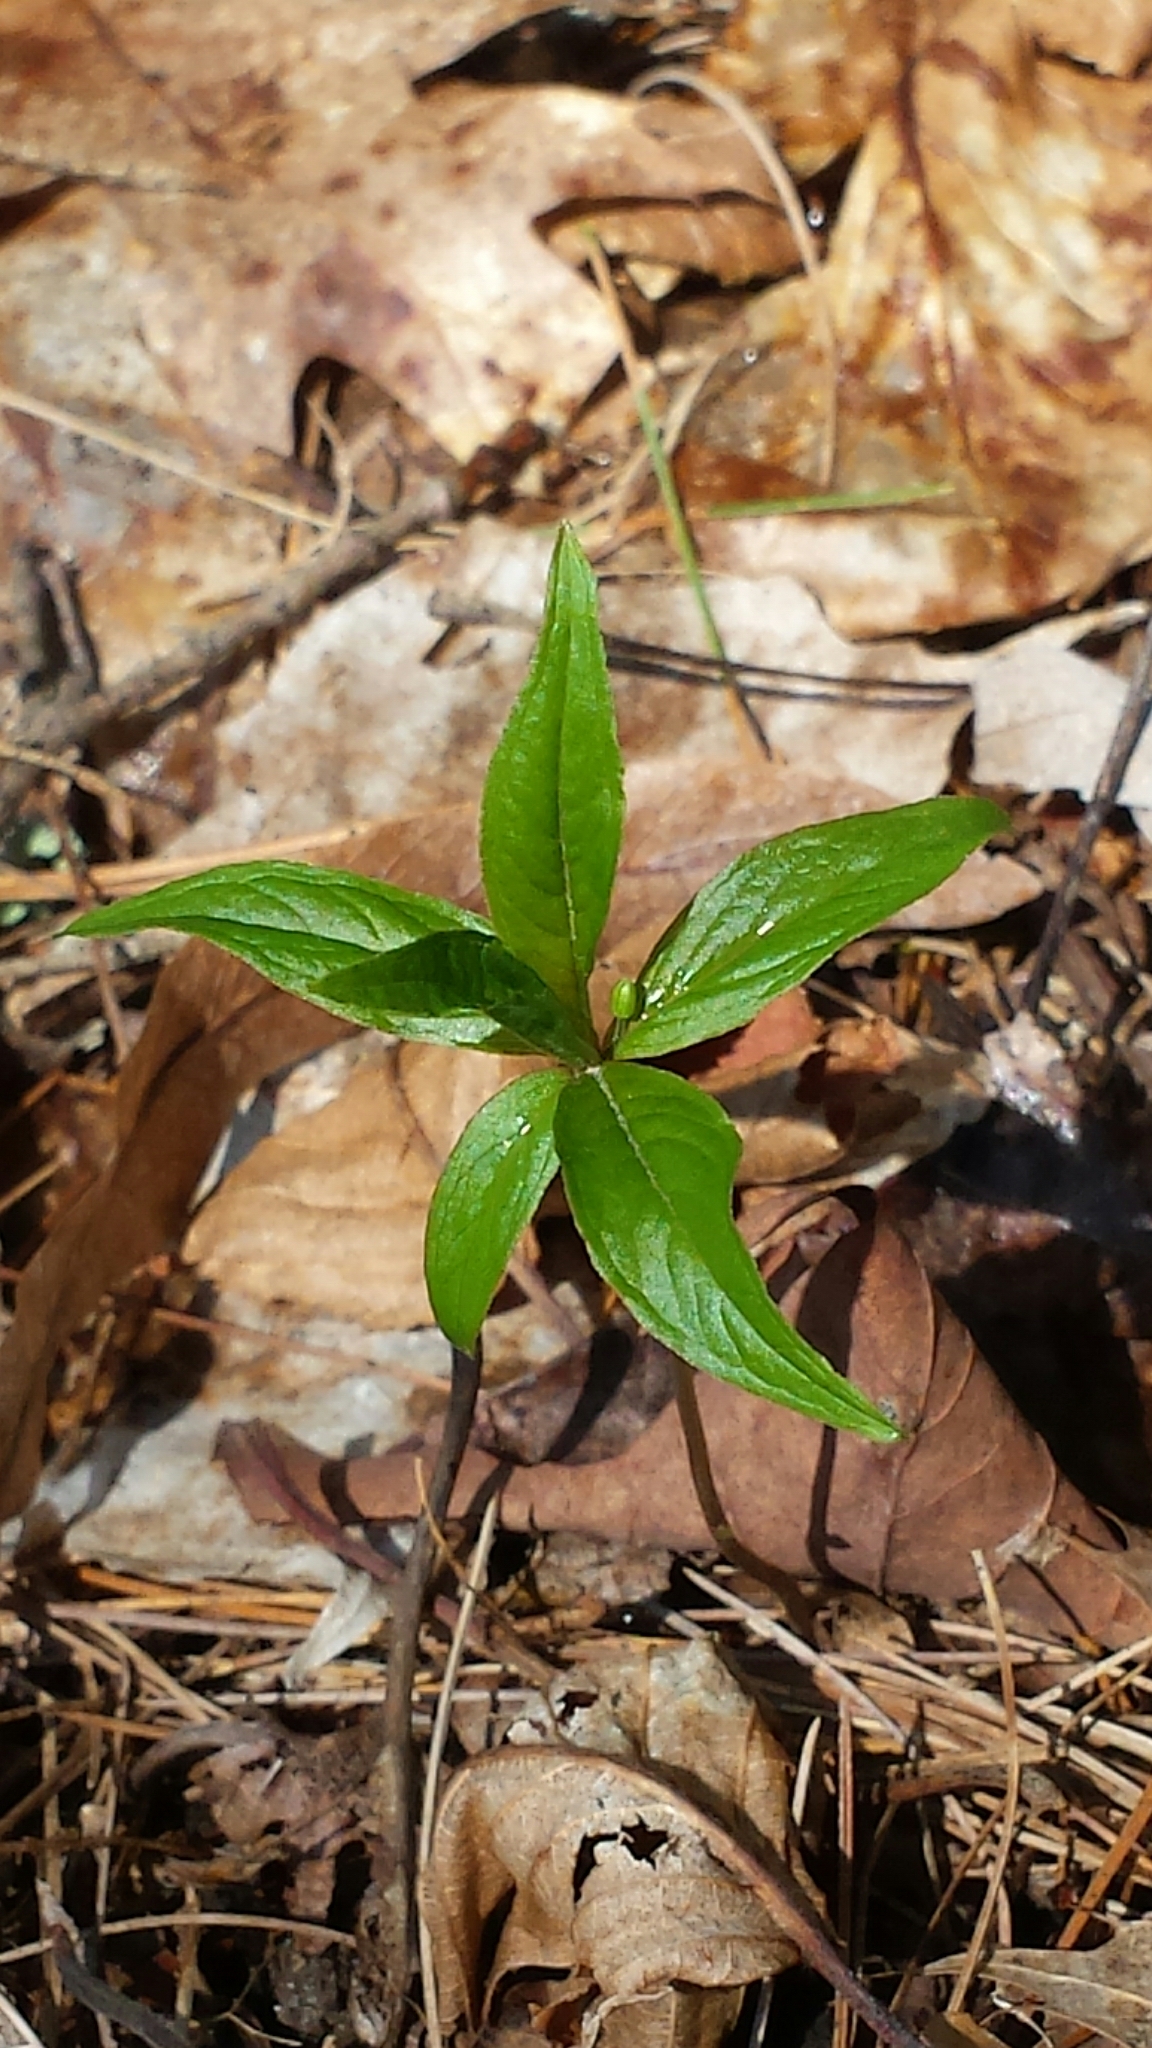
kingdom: Plantae
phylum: Tracheophyta
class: Magnoliopsida
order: Ericales
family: Primulaceae
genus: Lysimachia
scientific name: Lysimachia borealis
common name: American starflower
